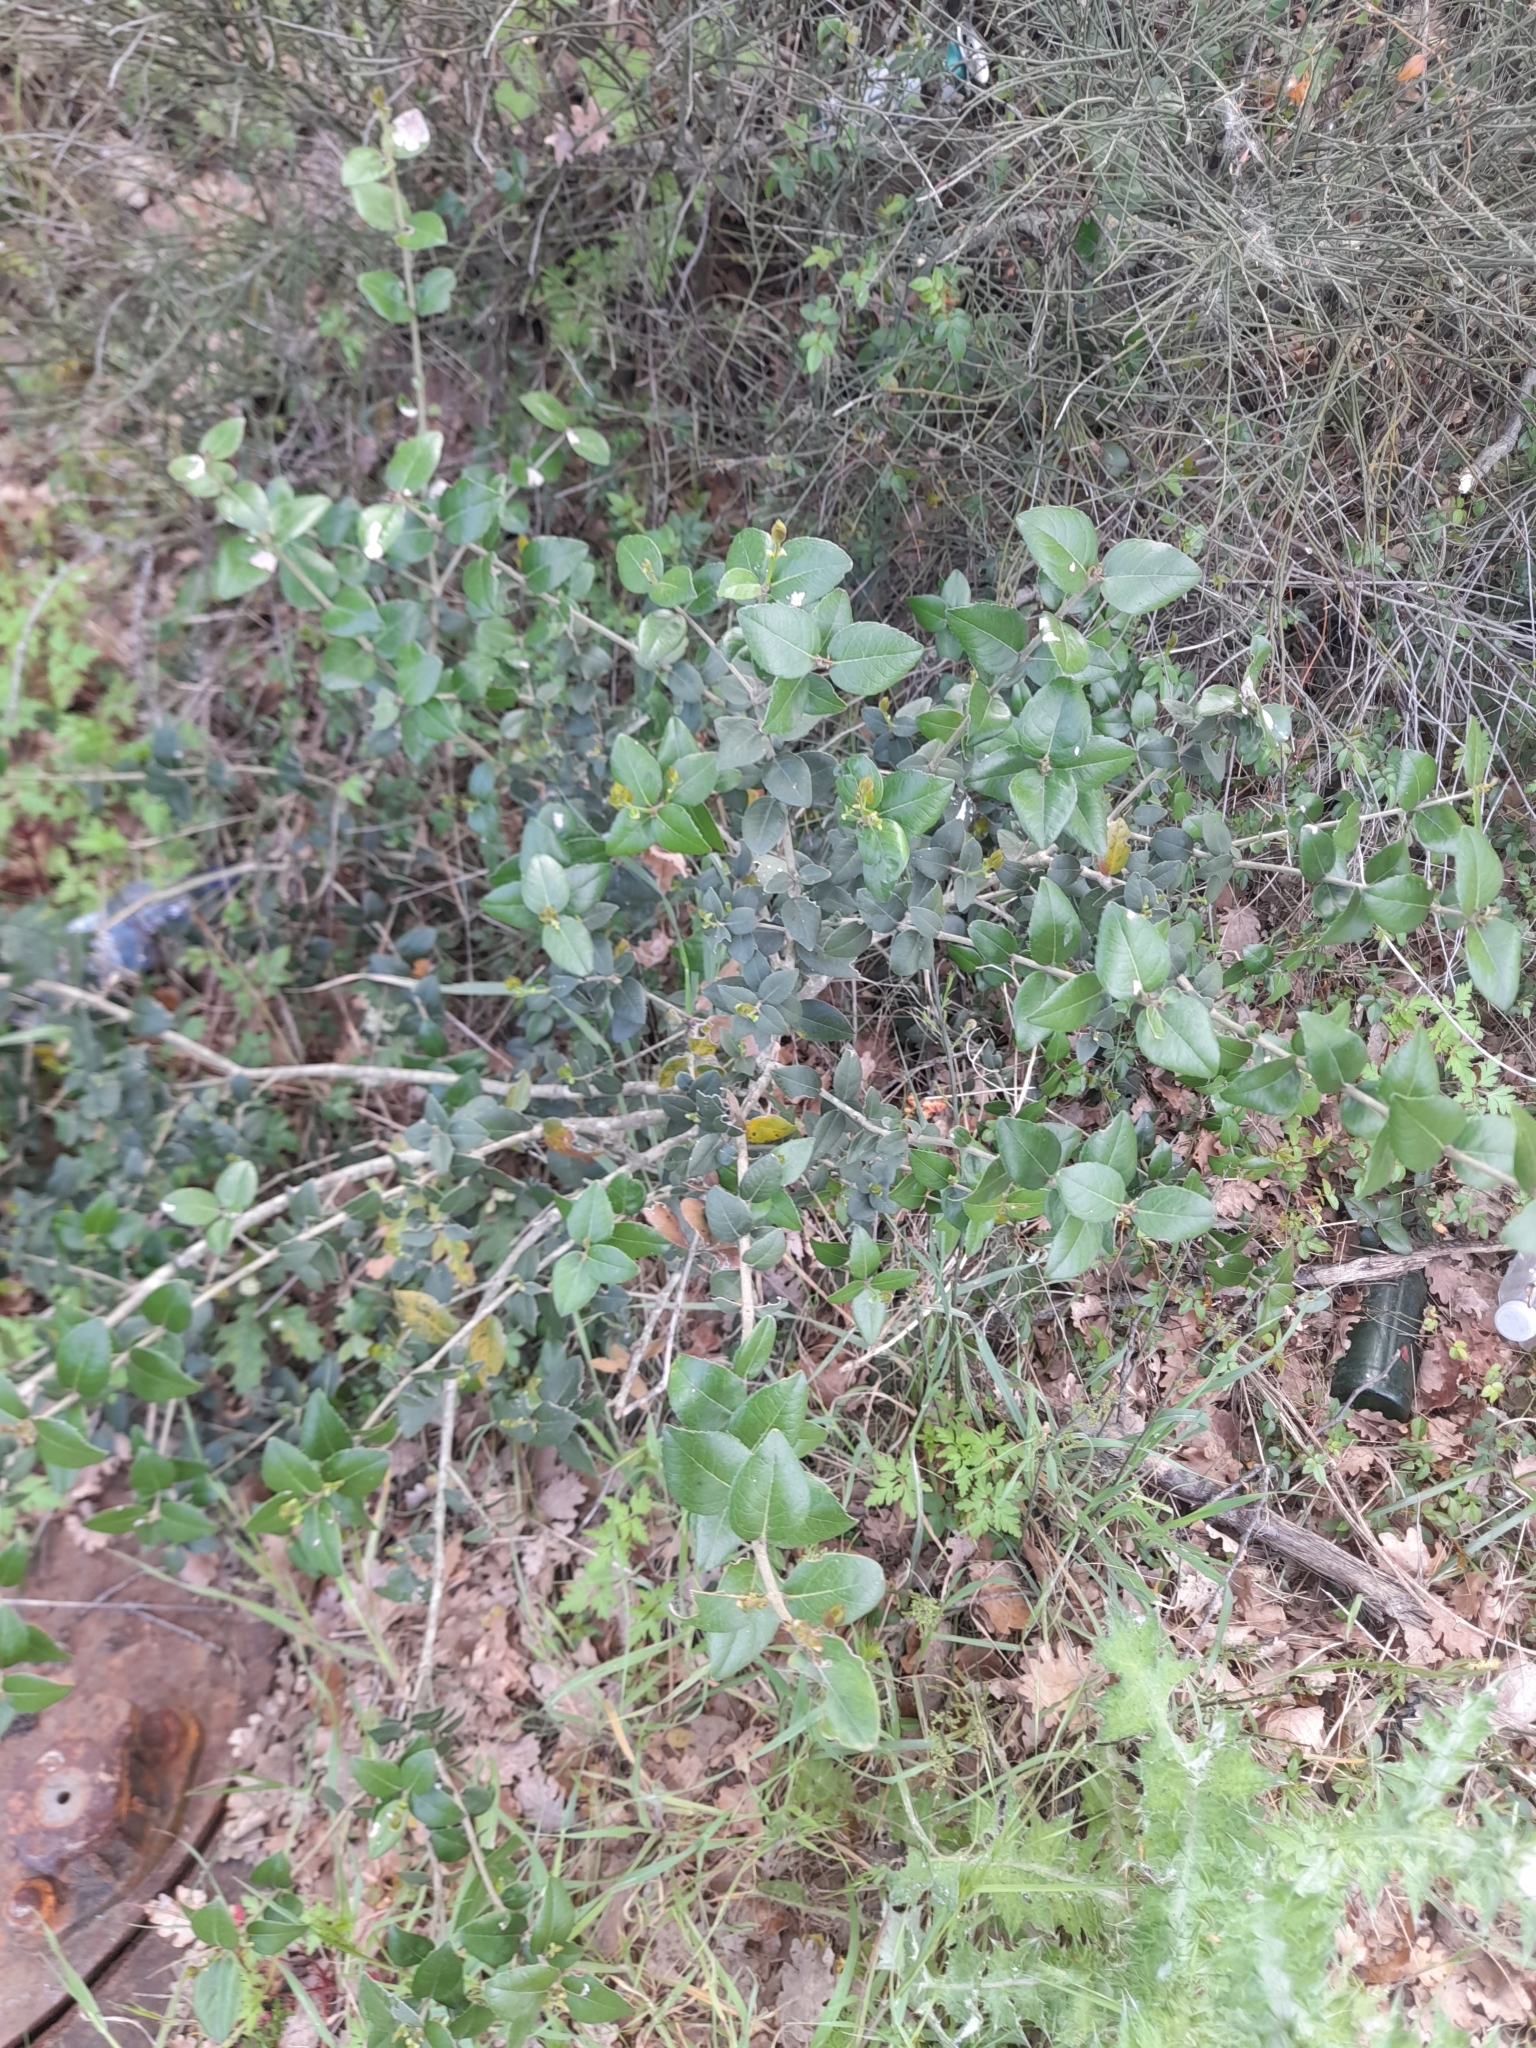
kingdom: Plantae
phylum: Tracheophyta
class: Magnoliopsida
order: Lamiales
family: Oleaceae
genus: Phillyrea
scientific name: Phillyrea latifolia
